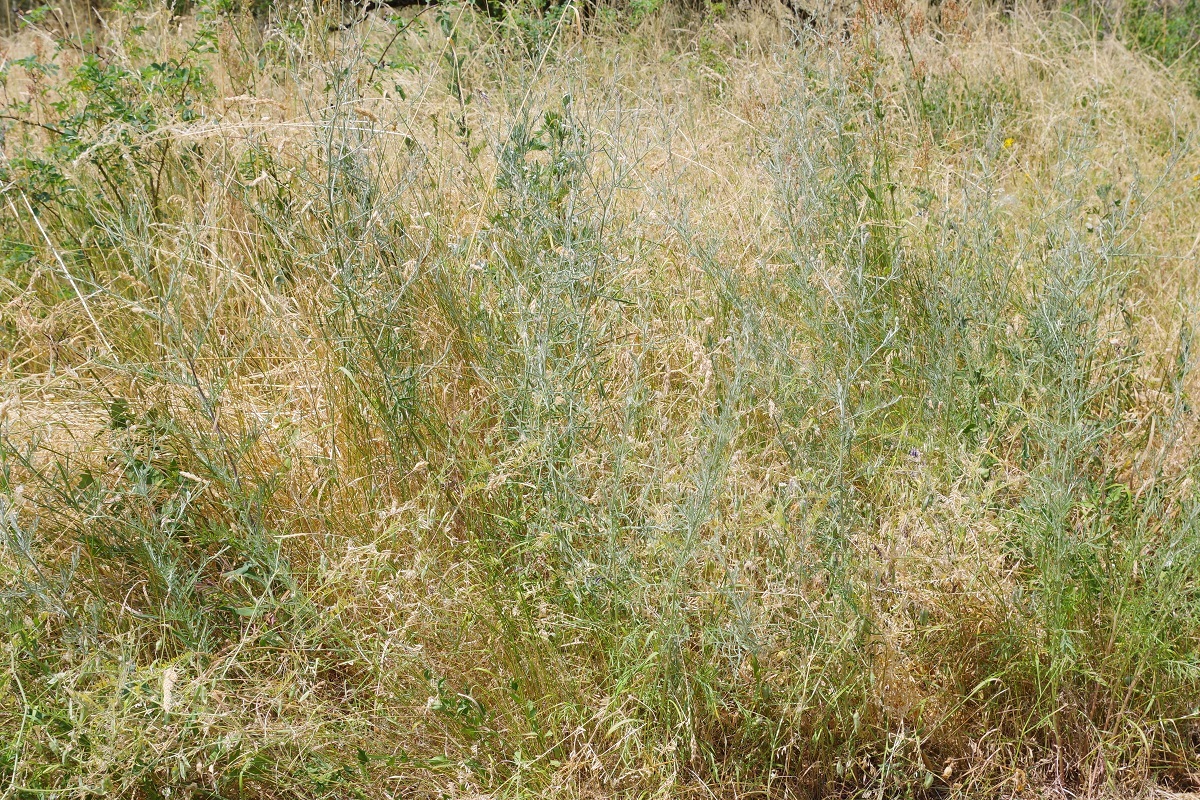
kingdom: Plantae
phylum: Tracheophyta
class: Magnoliopsida
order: Asterales
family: Asteraceae
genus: Centaurea
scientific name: Centaurea stoebe
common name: Spotted knapweed
